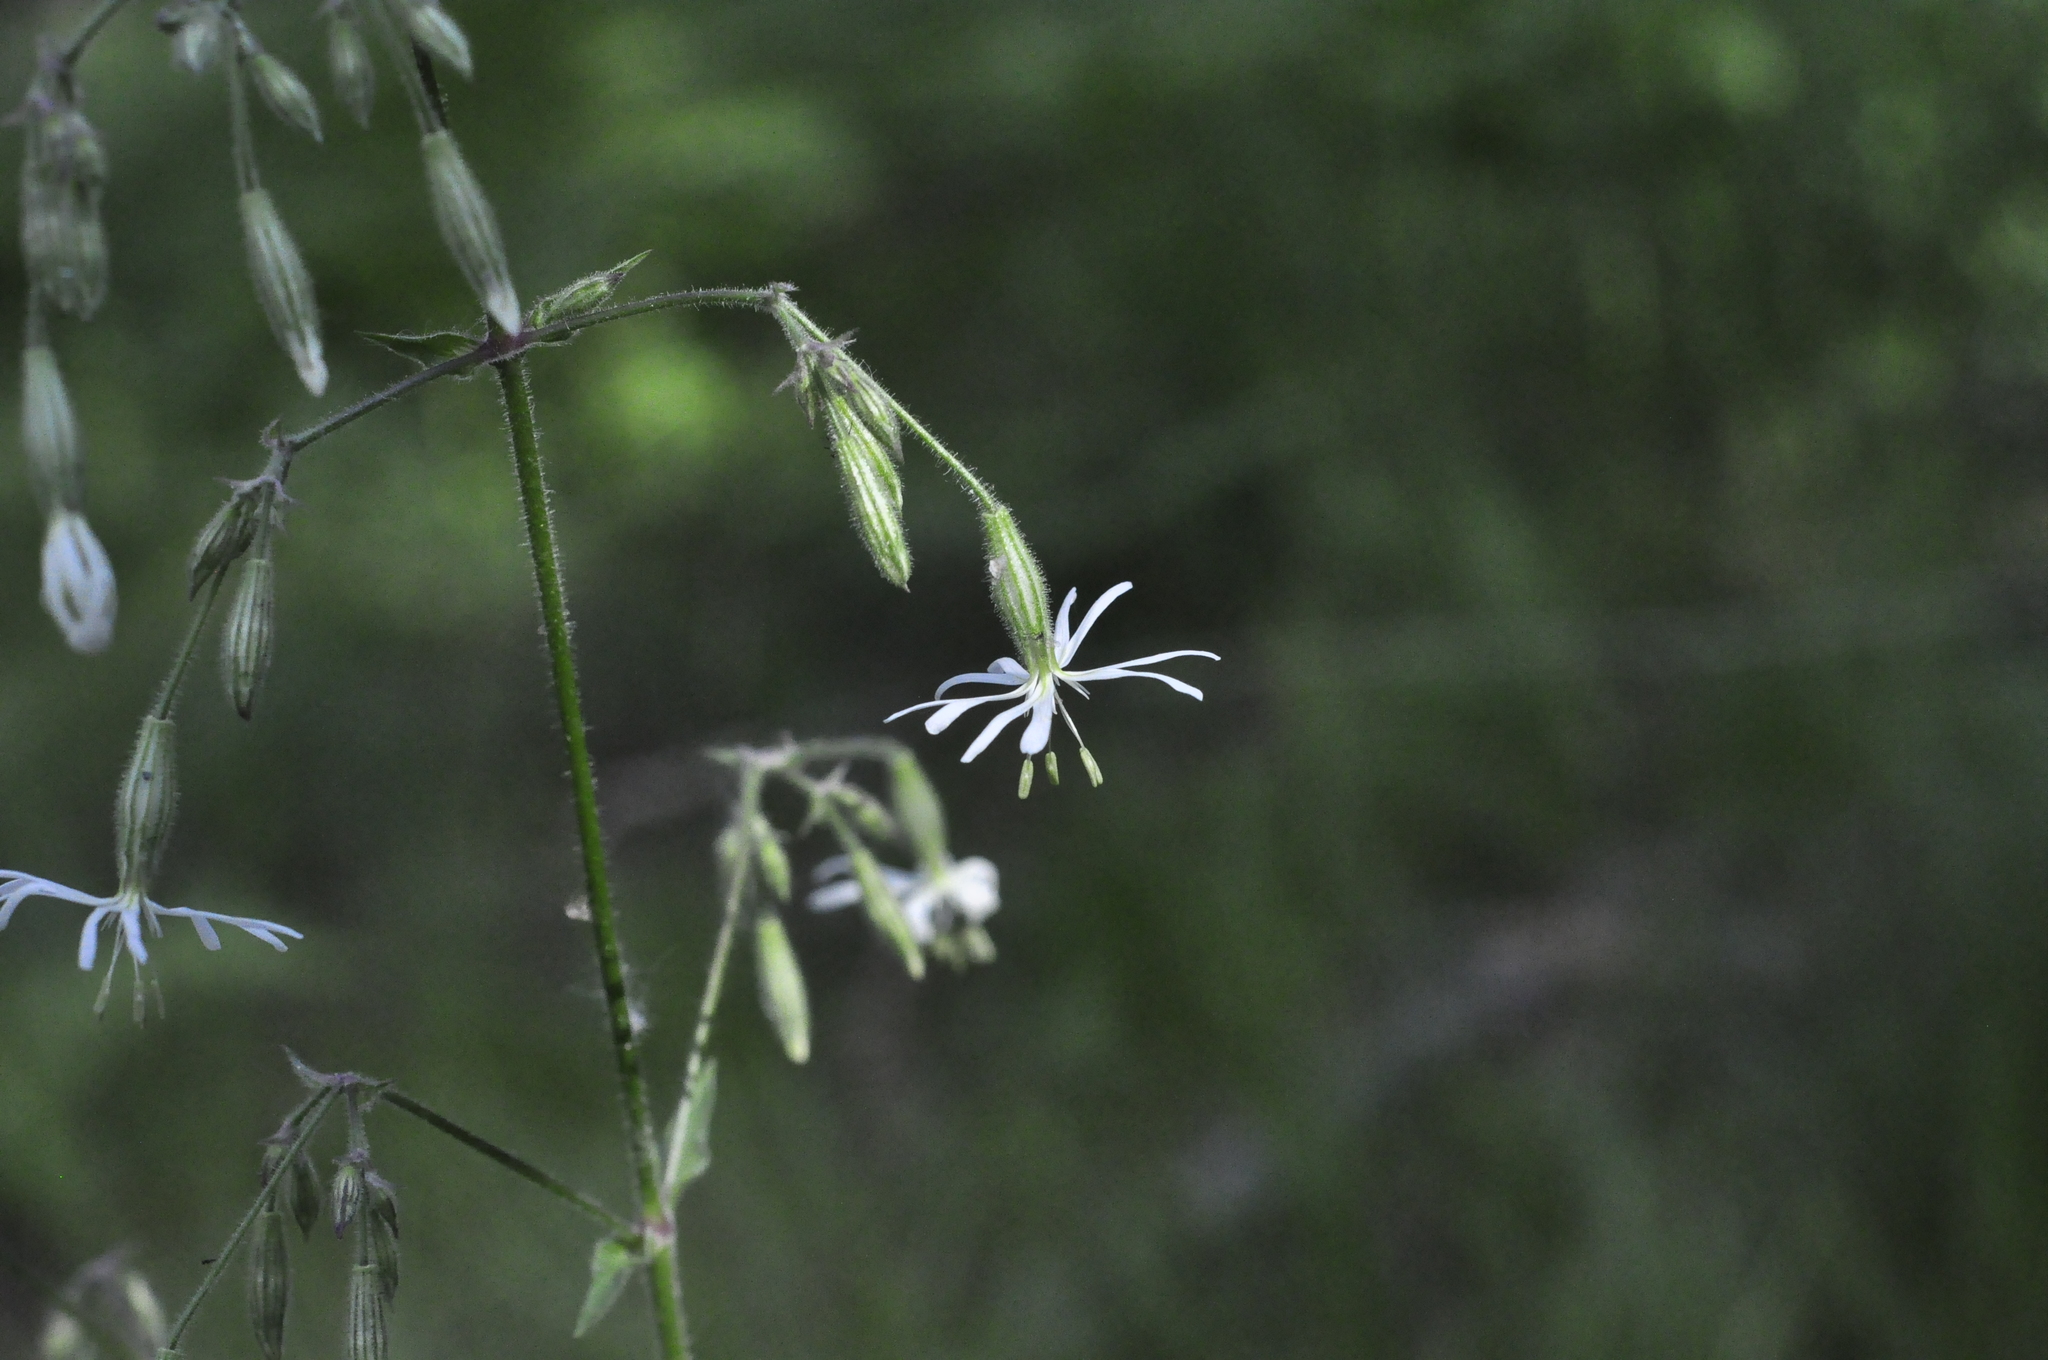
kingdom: Plantae
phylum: Tracheophyta
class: Magnoliopsida
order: Caryophyllales
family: Caryophyllaceae
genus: Silene
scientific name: Silene nutans
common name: Nottingham catchfly
